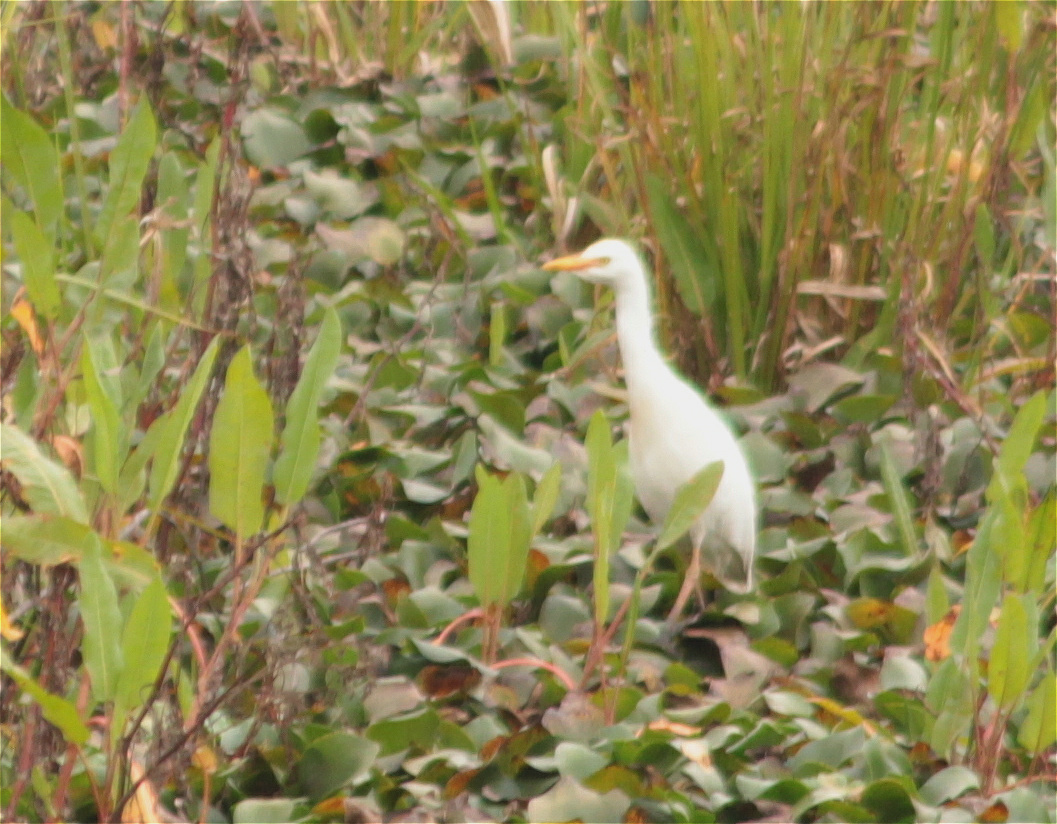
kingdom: Animalia
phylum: Chordata
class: Aves
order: Pelecaniformes
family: Ardeidae
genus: Bubulcus
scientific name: Bubulcus ibis
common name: Cattle egret
